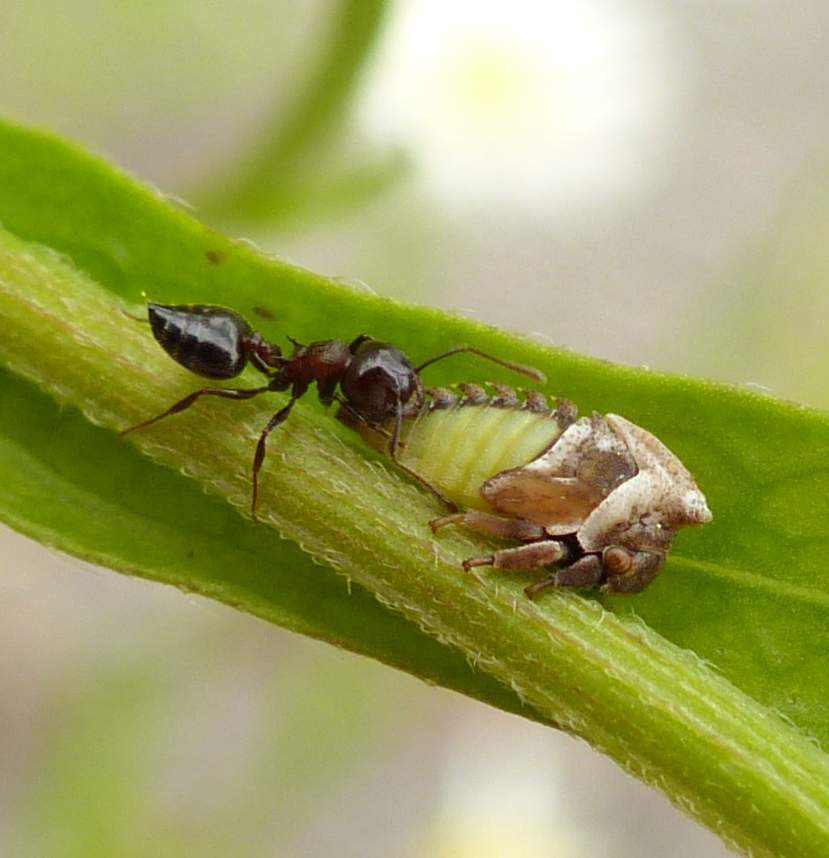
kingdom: Animalia
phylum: Arthropoda
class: Insecta
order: Hemiptera
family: Membracidae
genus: Enchenopa
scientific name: Enchenopa latipes
